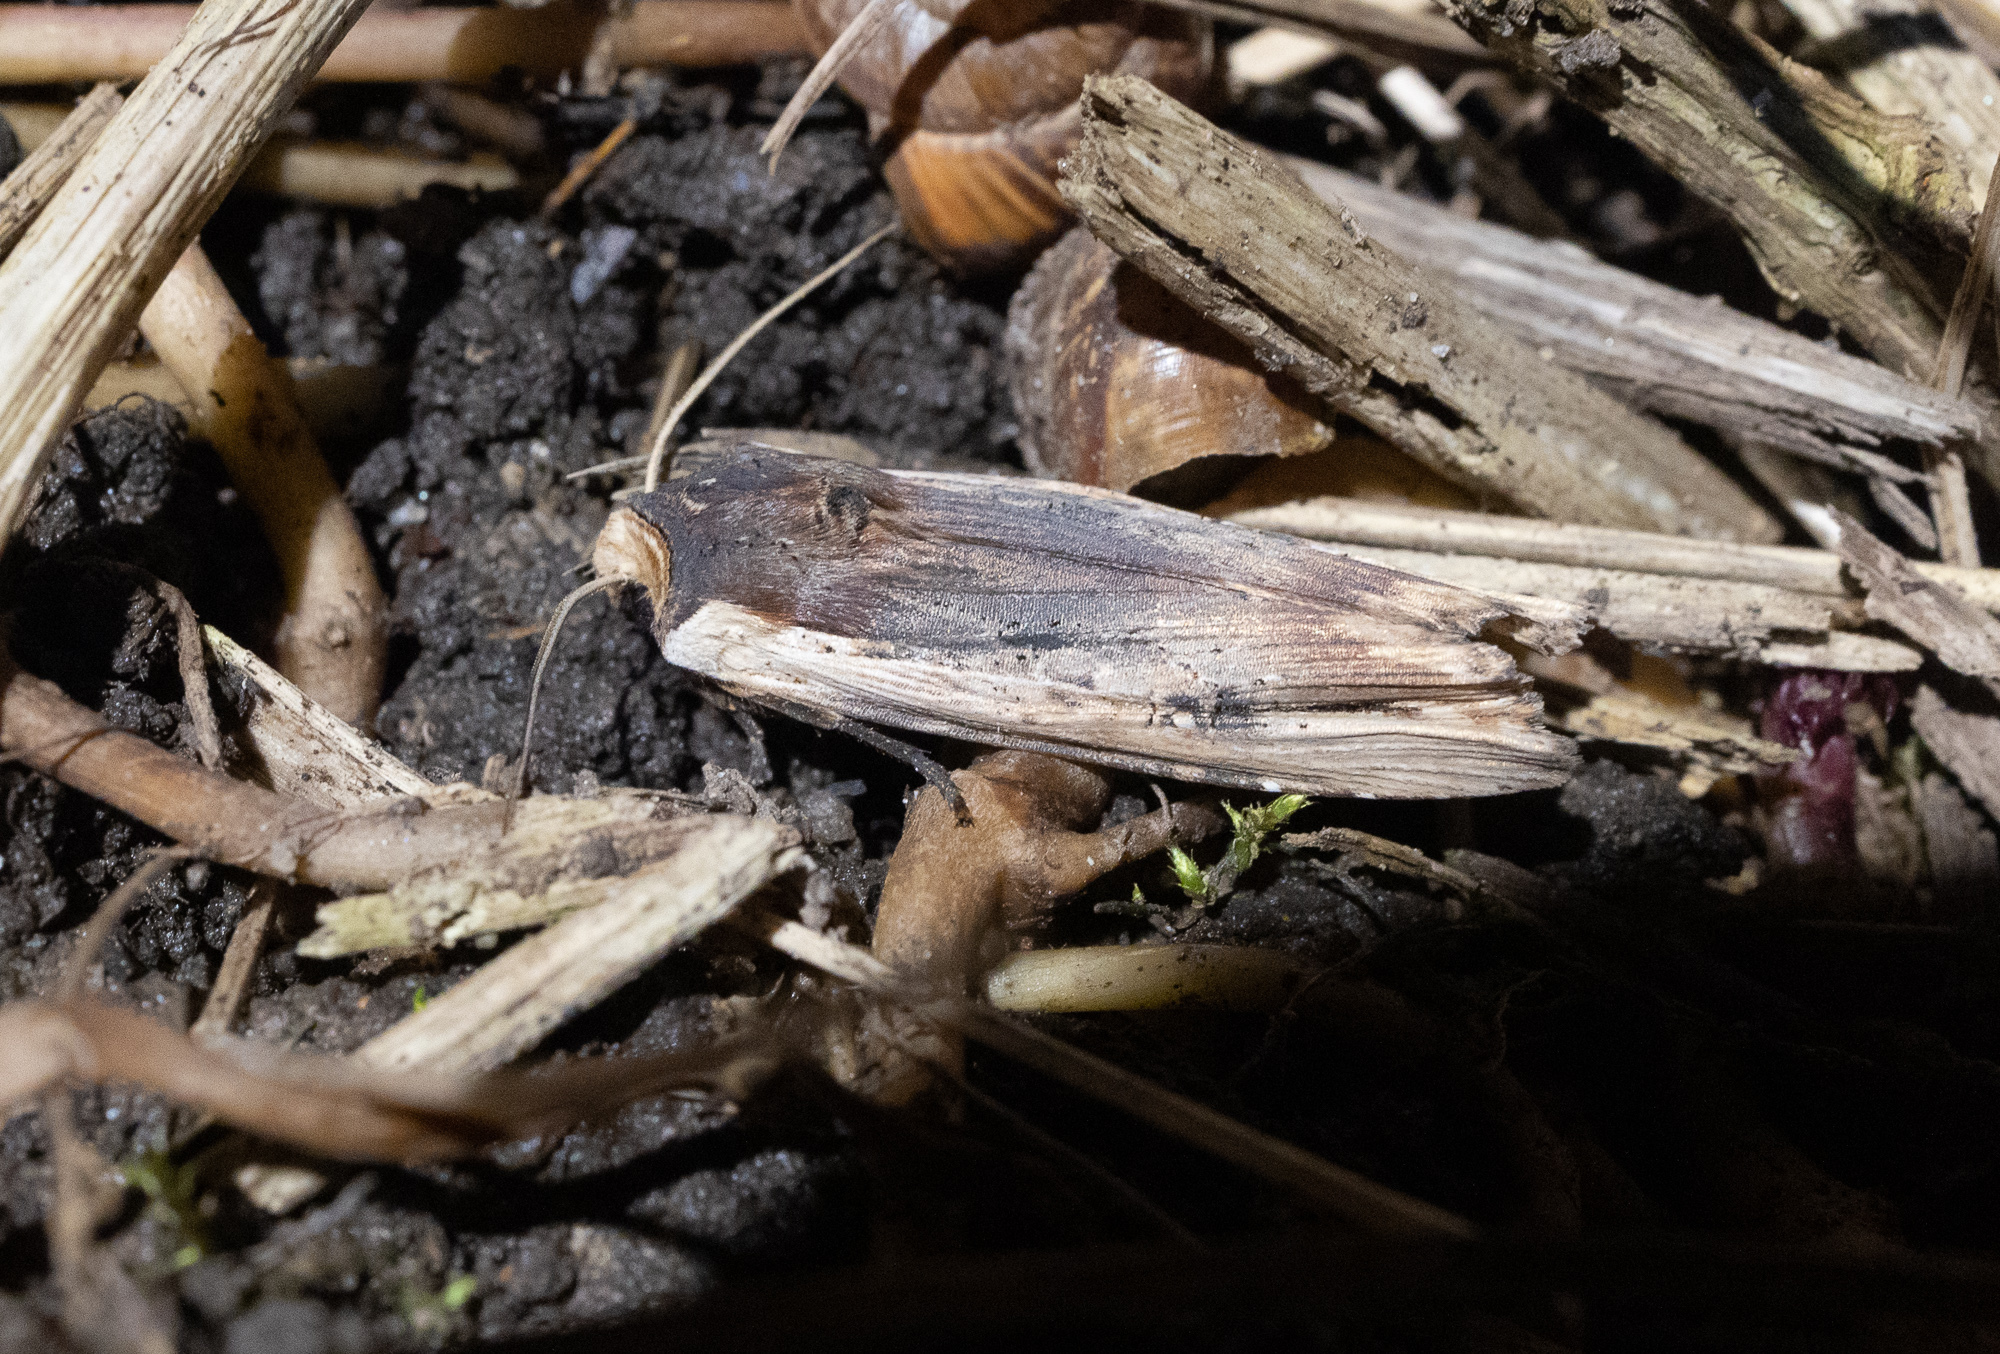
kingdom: Animalia
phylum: Arthropoda
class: Insecta
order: Lepidoptera
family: Noctuidae
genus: Xylena
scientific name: Xylena vetusta
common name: Red sword-grass
